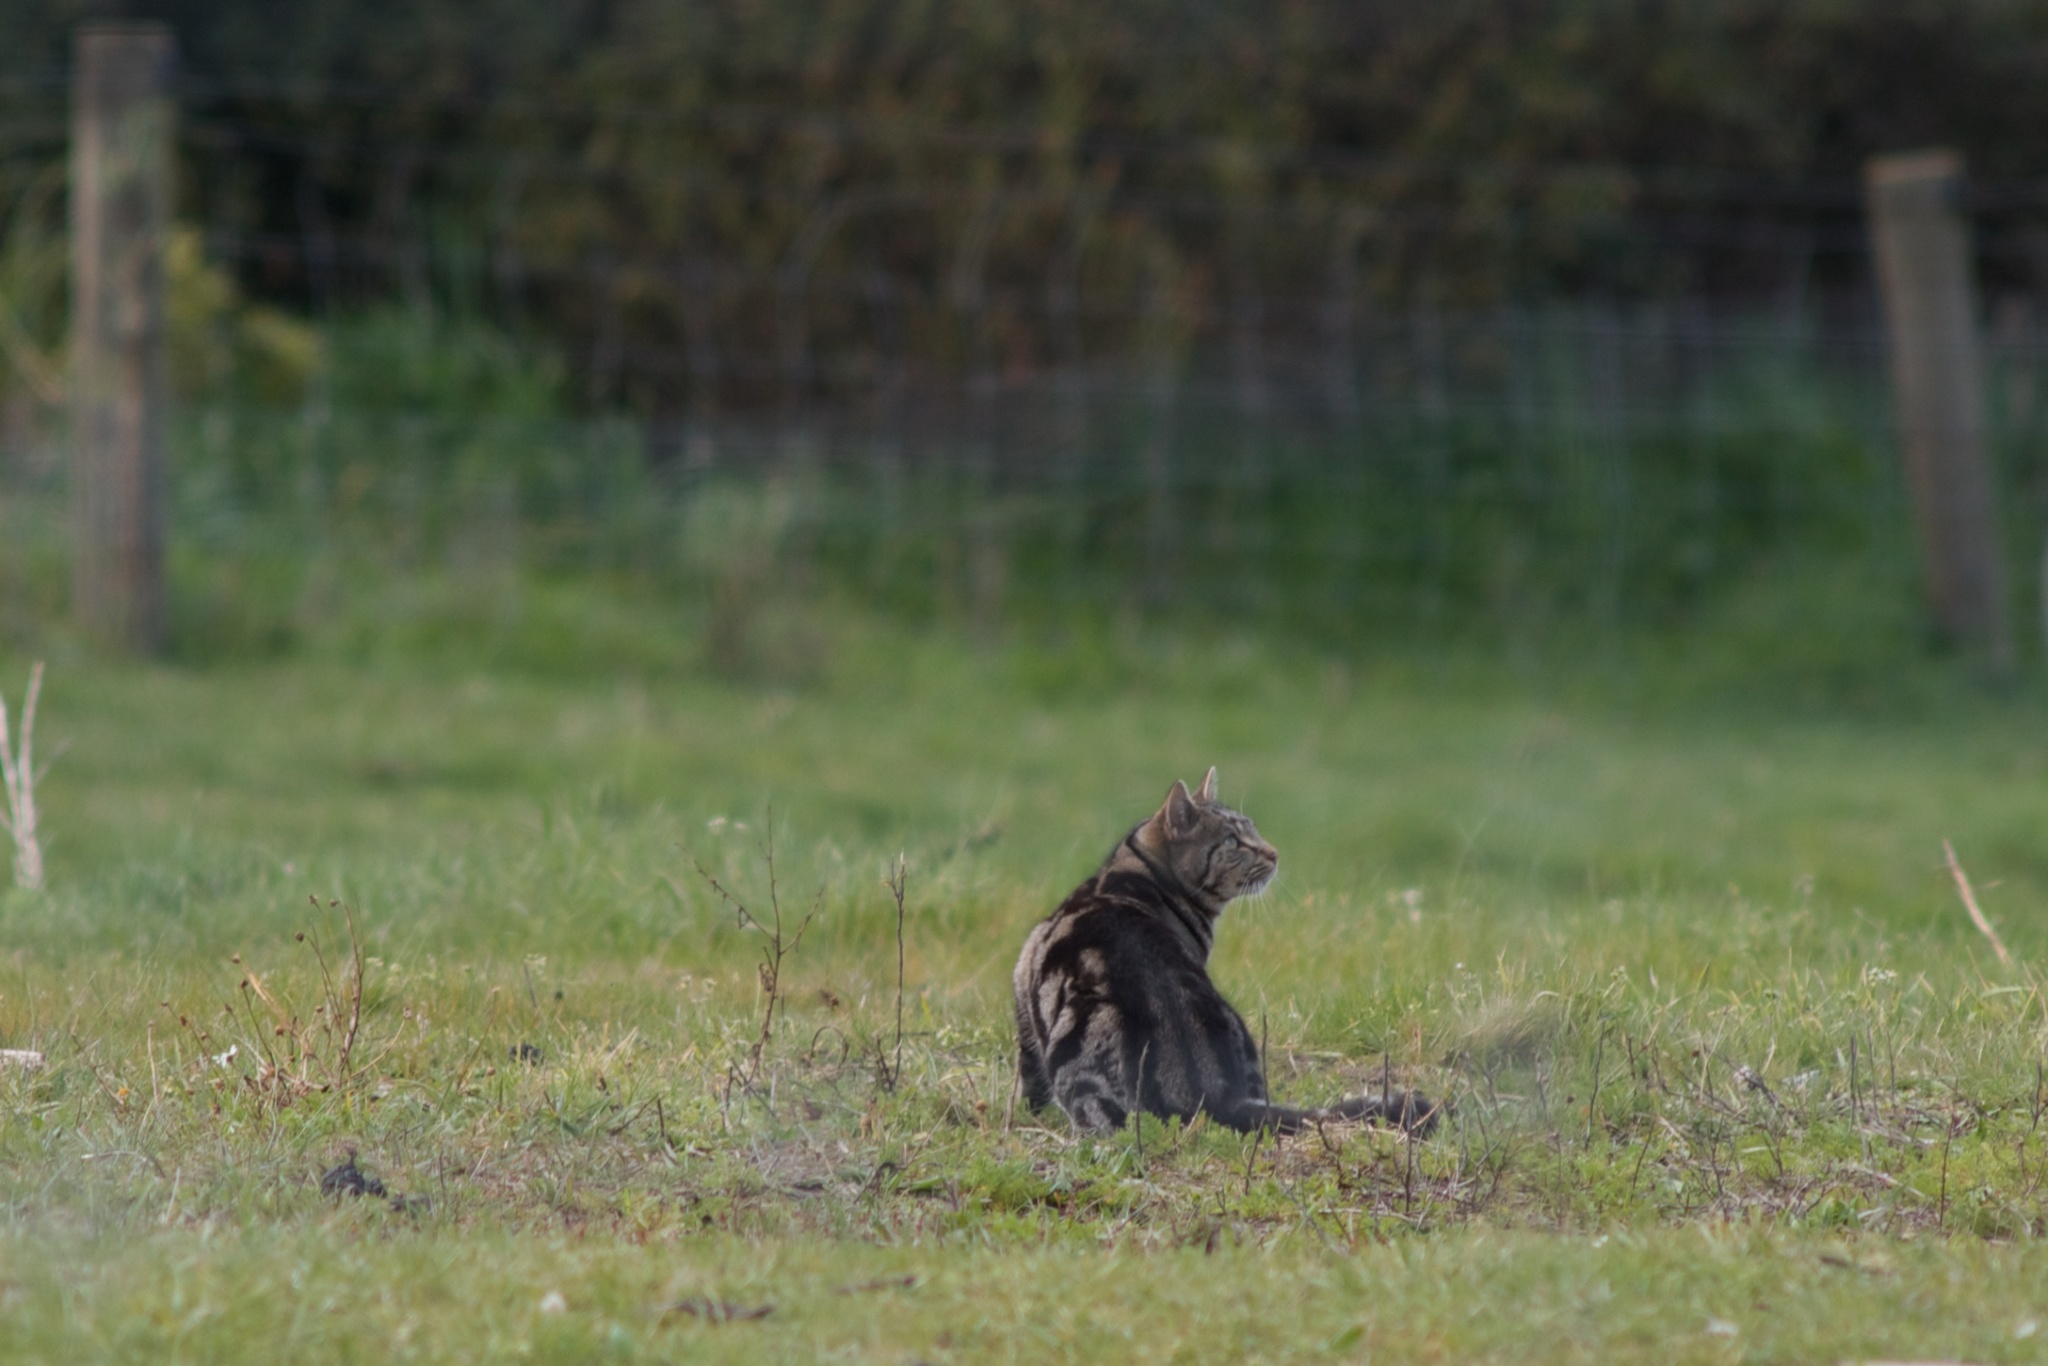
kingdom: Animalia
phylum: Chordata
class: Mammalia
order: Carnivora
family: Felidae
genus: Felis
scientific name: Felis catus
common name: Domestic cat
